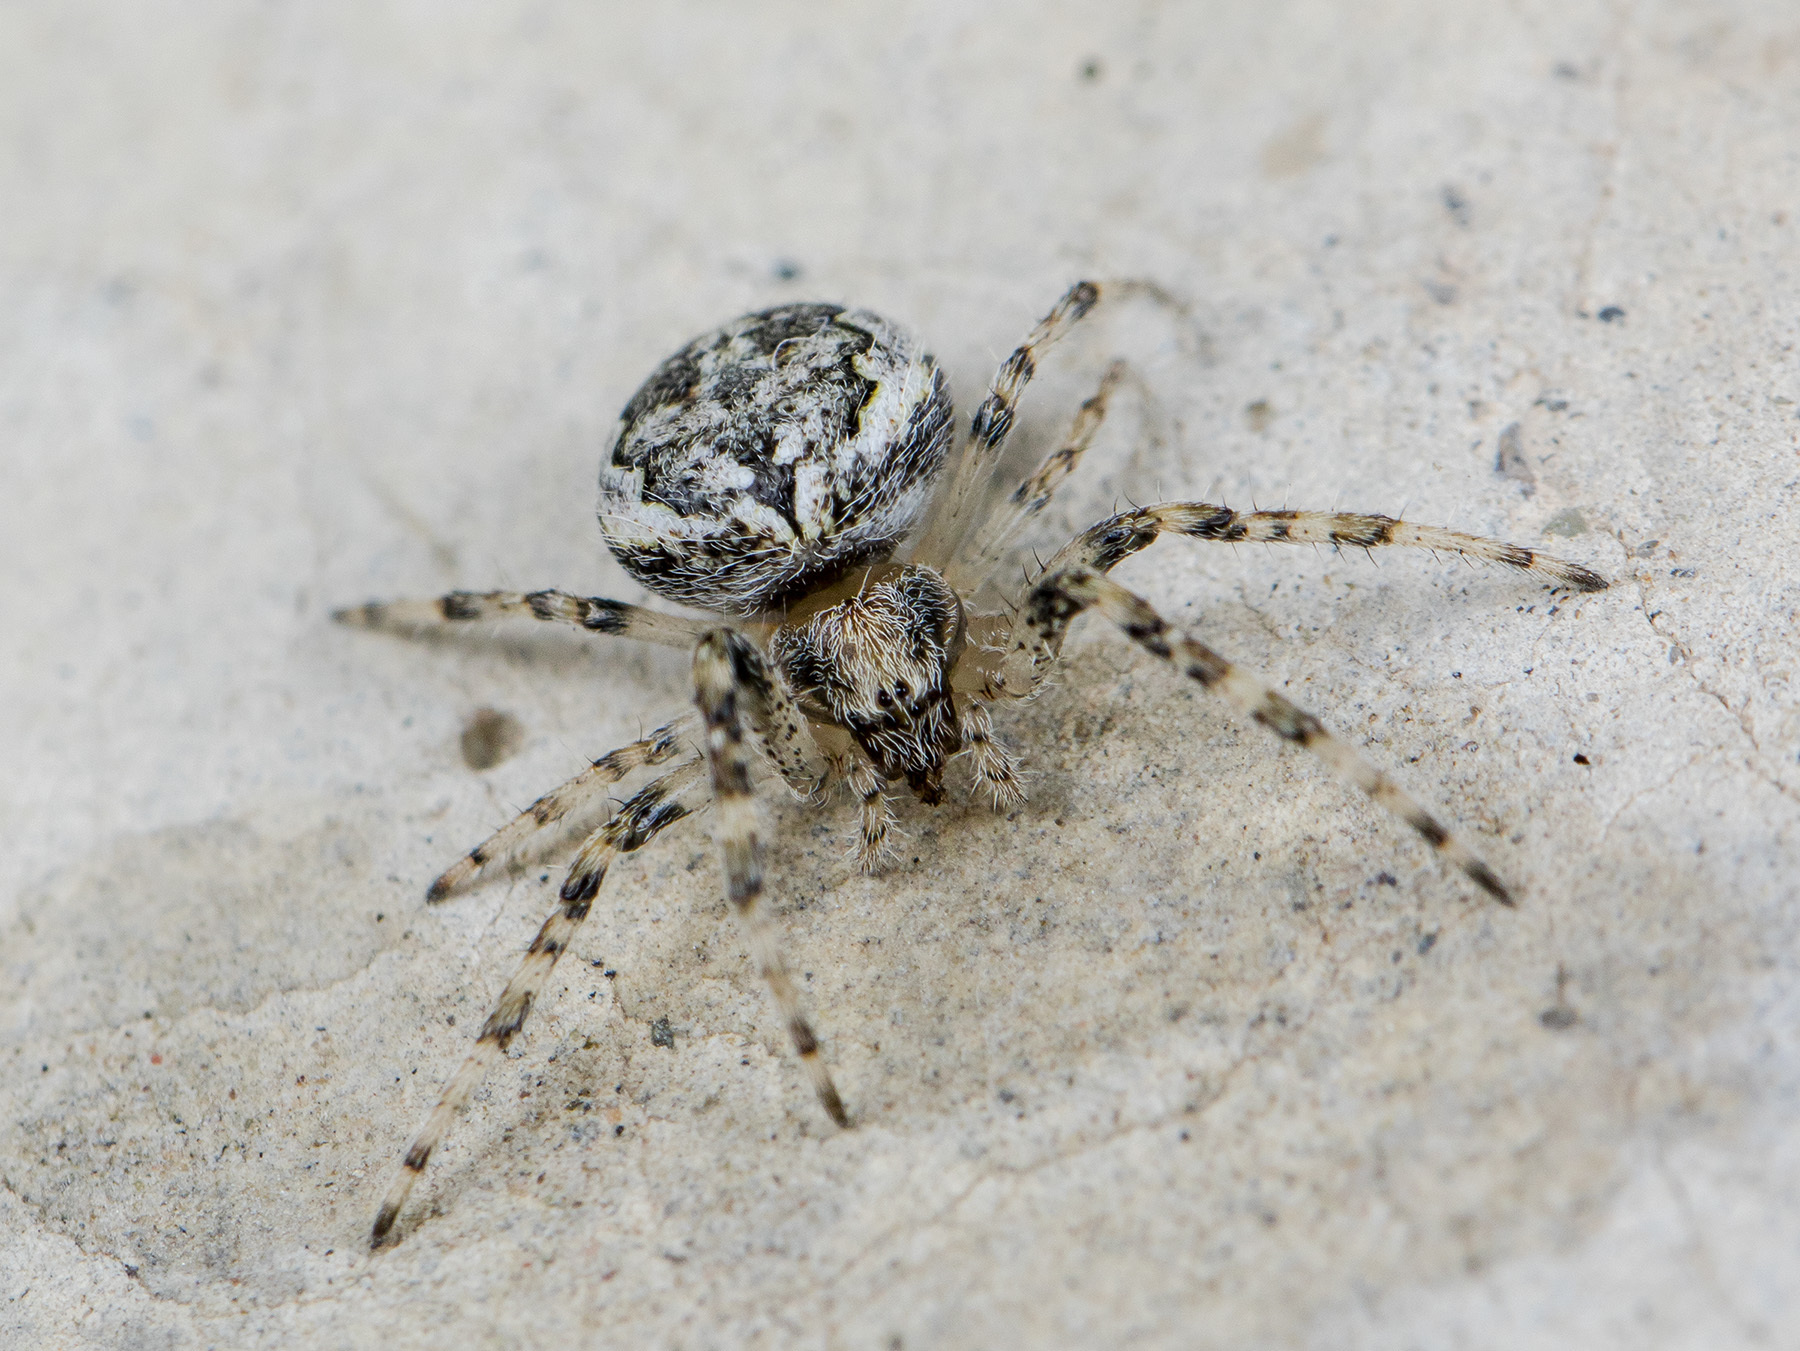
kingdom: Animalia
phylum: Arthropoda
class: Arachnida
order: Araneae
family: Araneidae
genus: Larinioides
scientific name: Larinioides ixobolus
